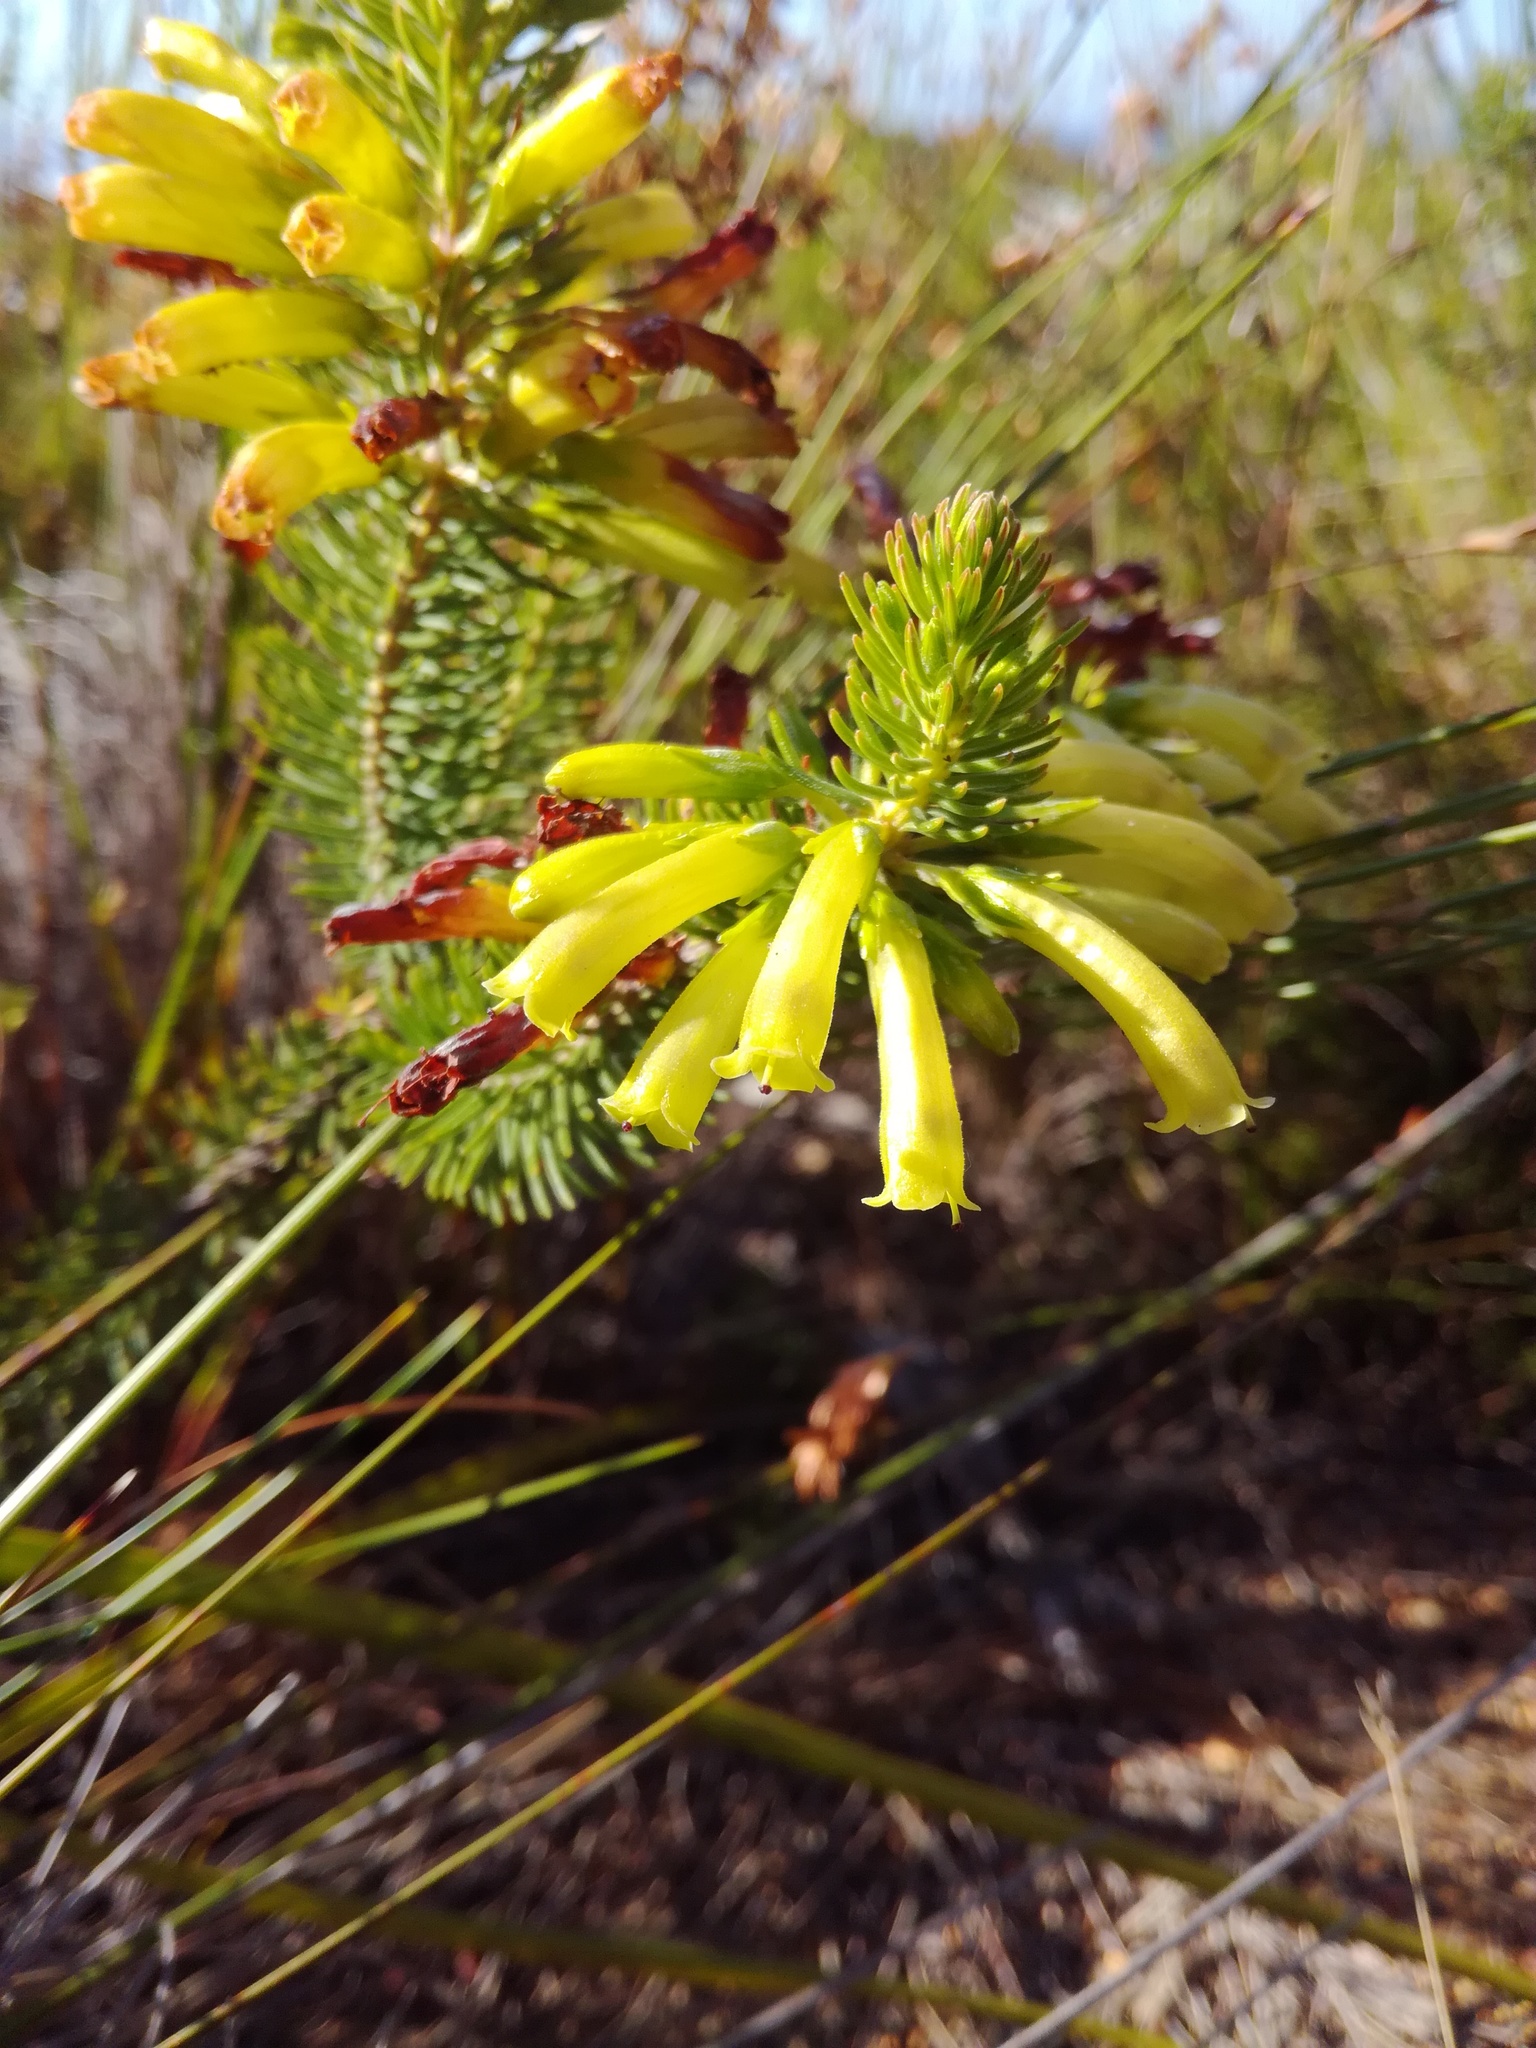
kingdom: Plantae
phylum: Tracheophyta
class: Magnoliopsida
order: Ericales
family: Ericaceae
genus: Erica
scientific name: Erica viscaria
